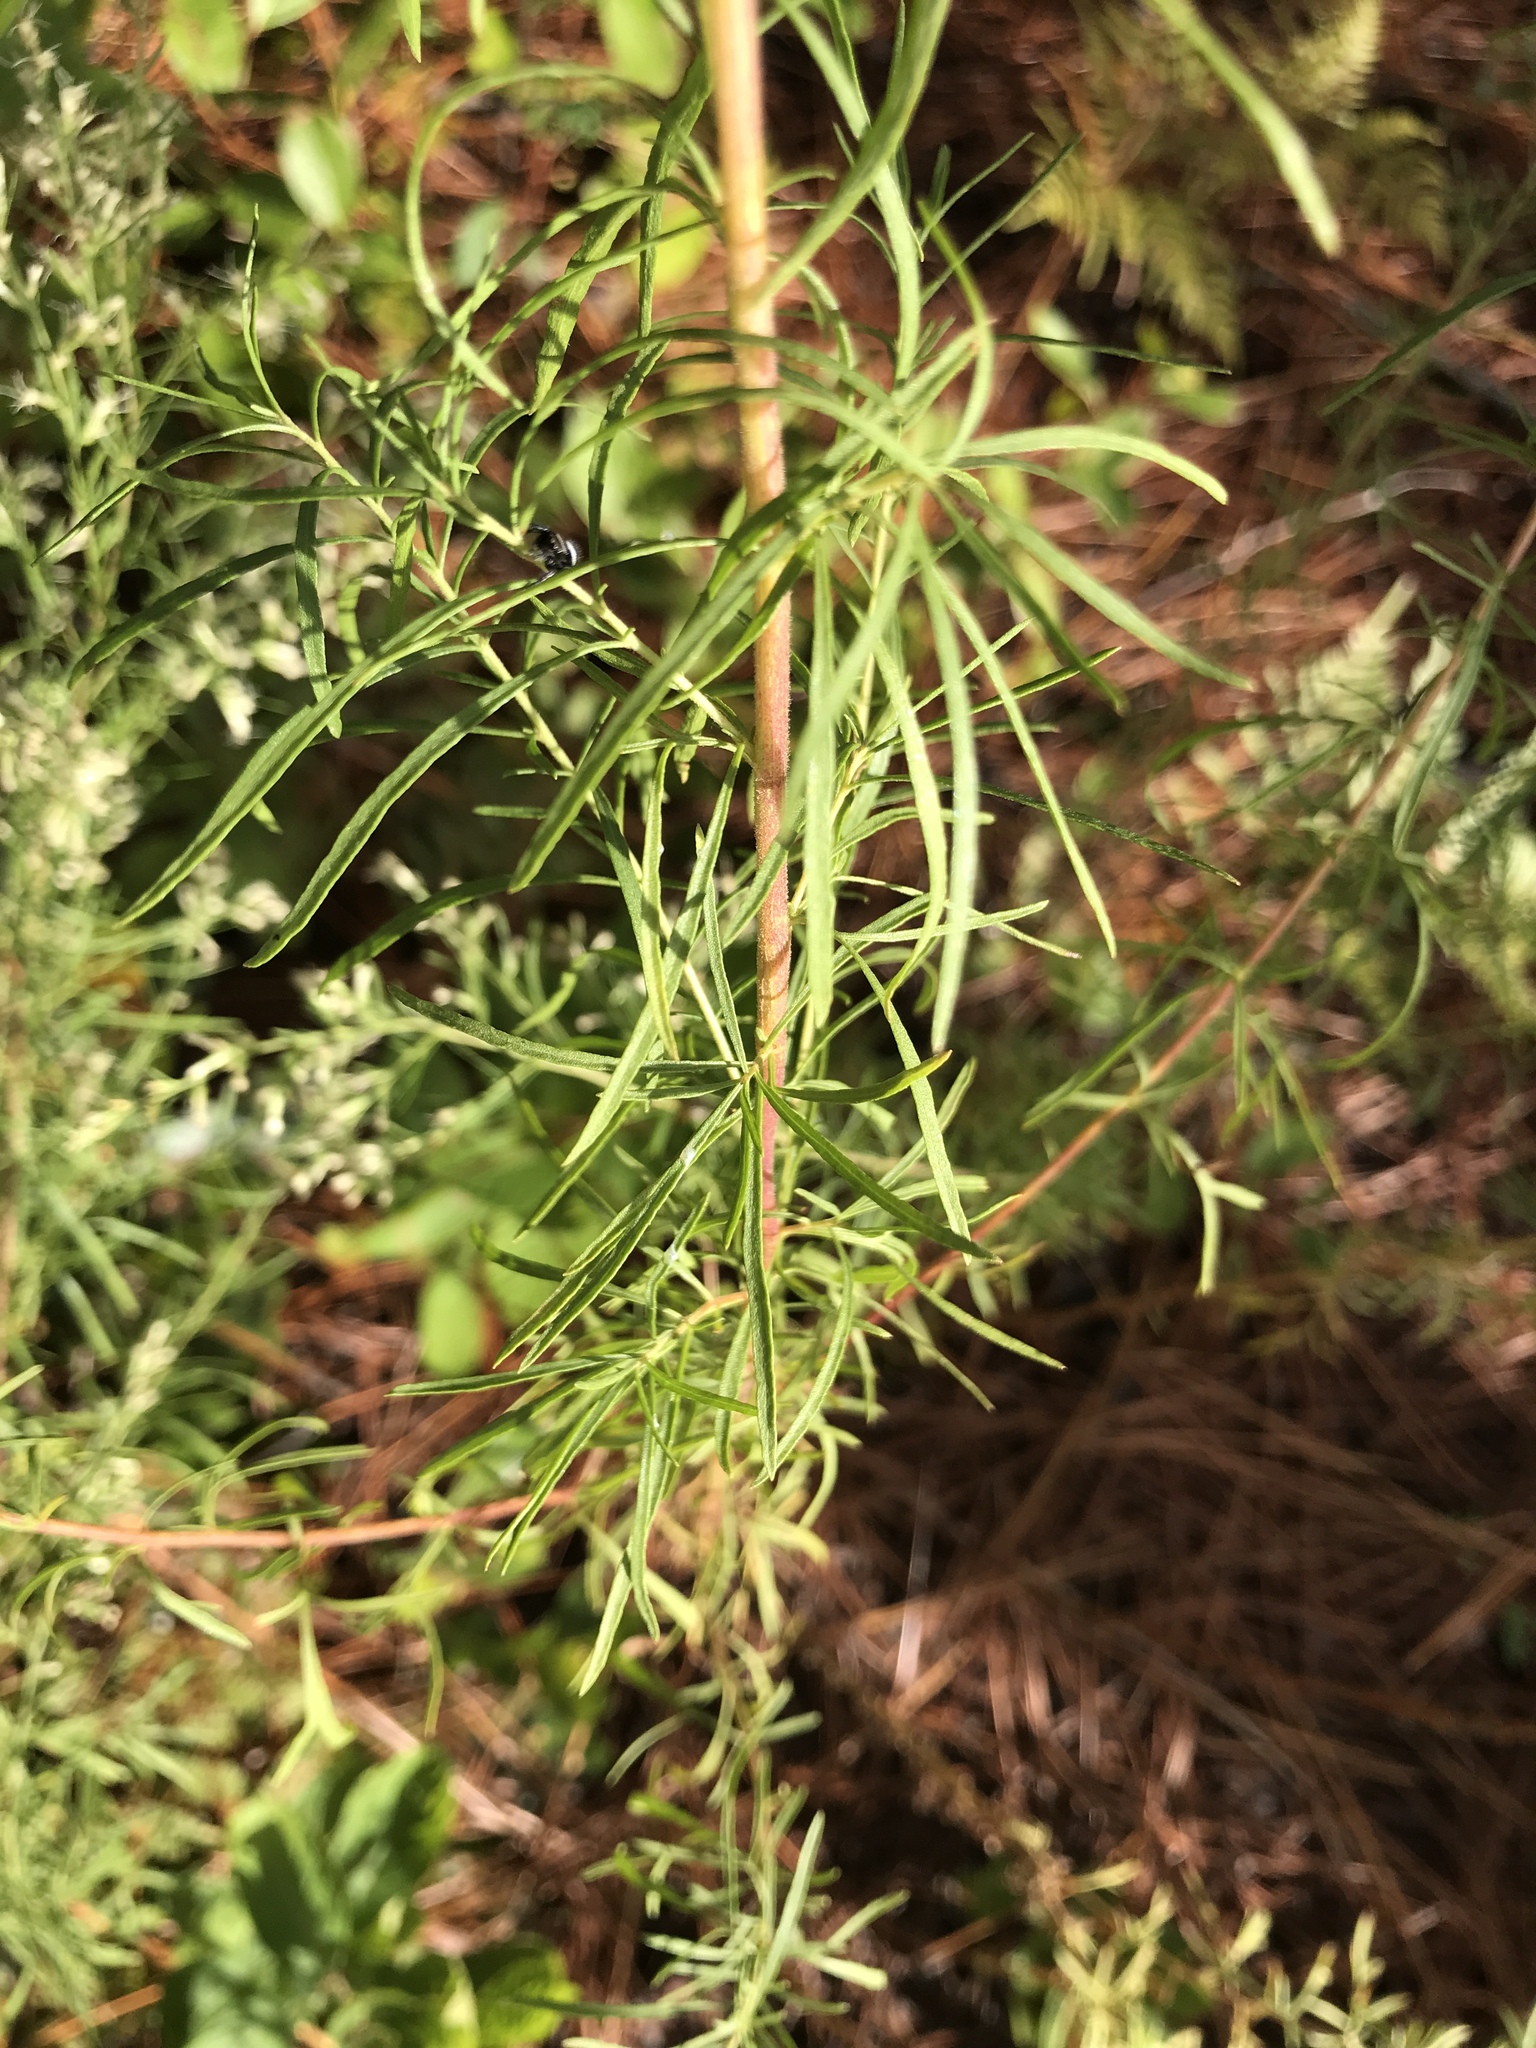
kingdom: Plantae
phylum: Tracheophyta
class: Magnoliopsida
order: Asterales
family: Asteraceae
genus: Eupatorium
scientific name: Eupatorium compositifolium
